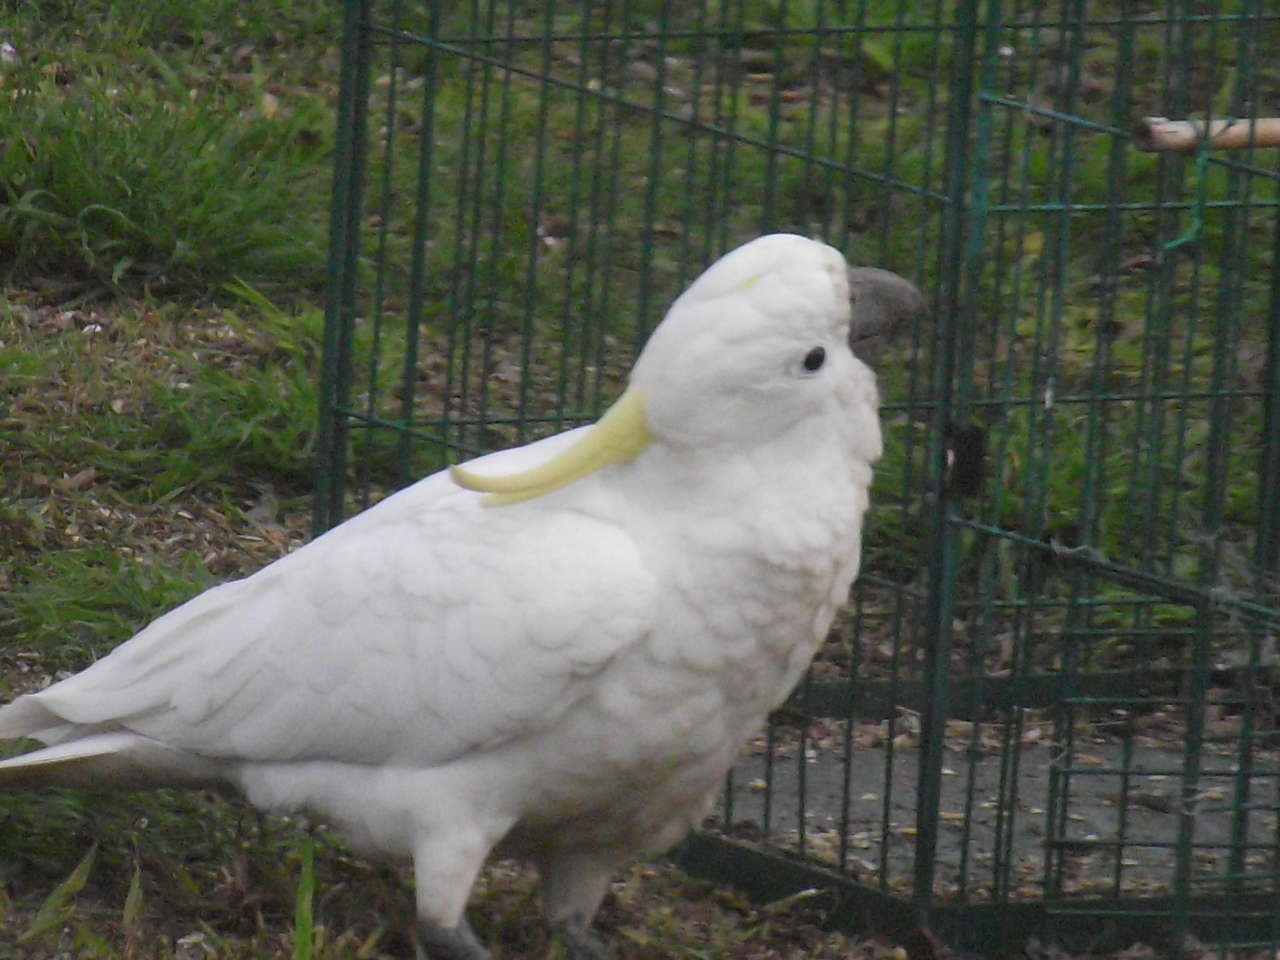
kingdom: Animalia
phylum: Chordata
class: Aves
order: Psittaciformes
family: Psittacidae
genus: Cacatua
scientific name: Cacatua galerita
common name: Sulphur-crested cockatoo
